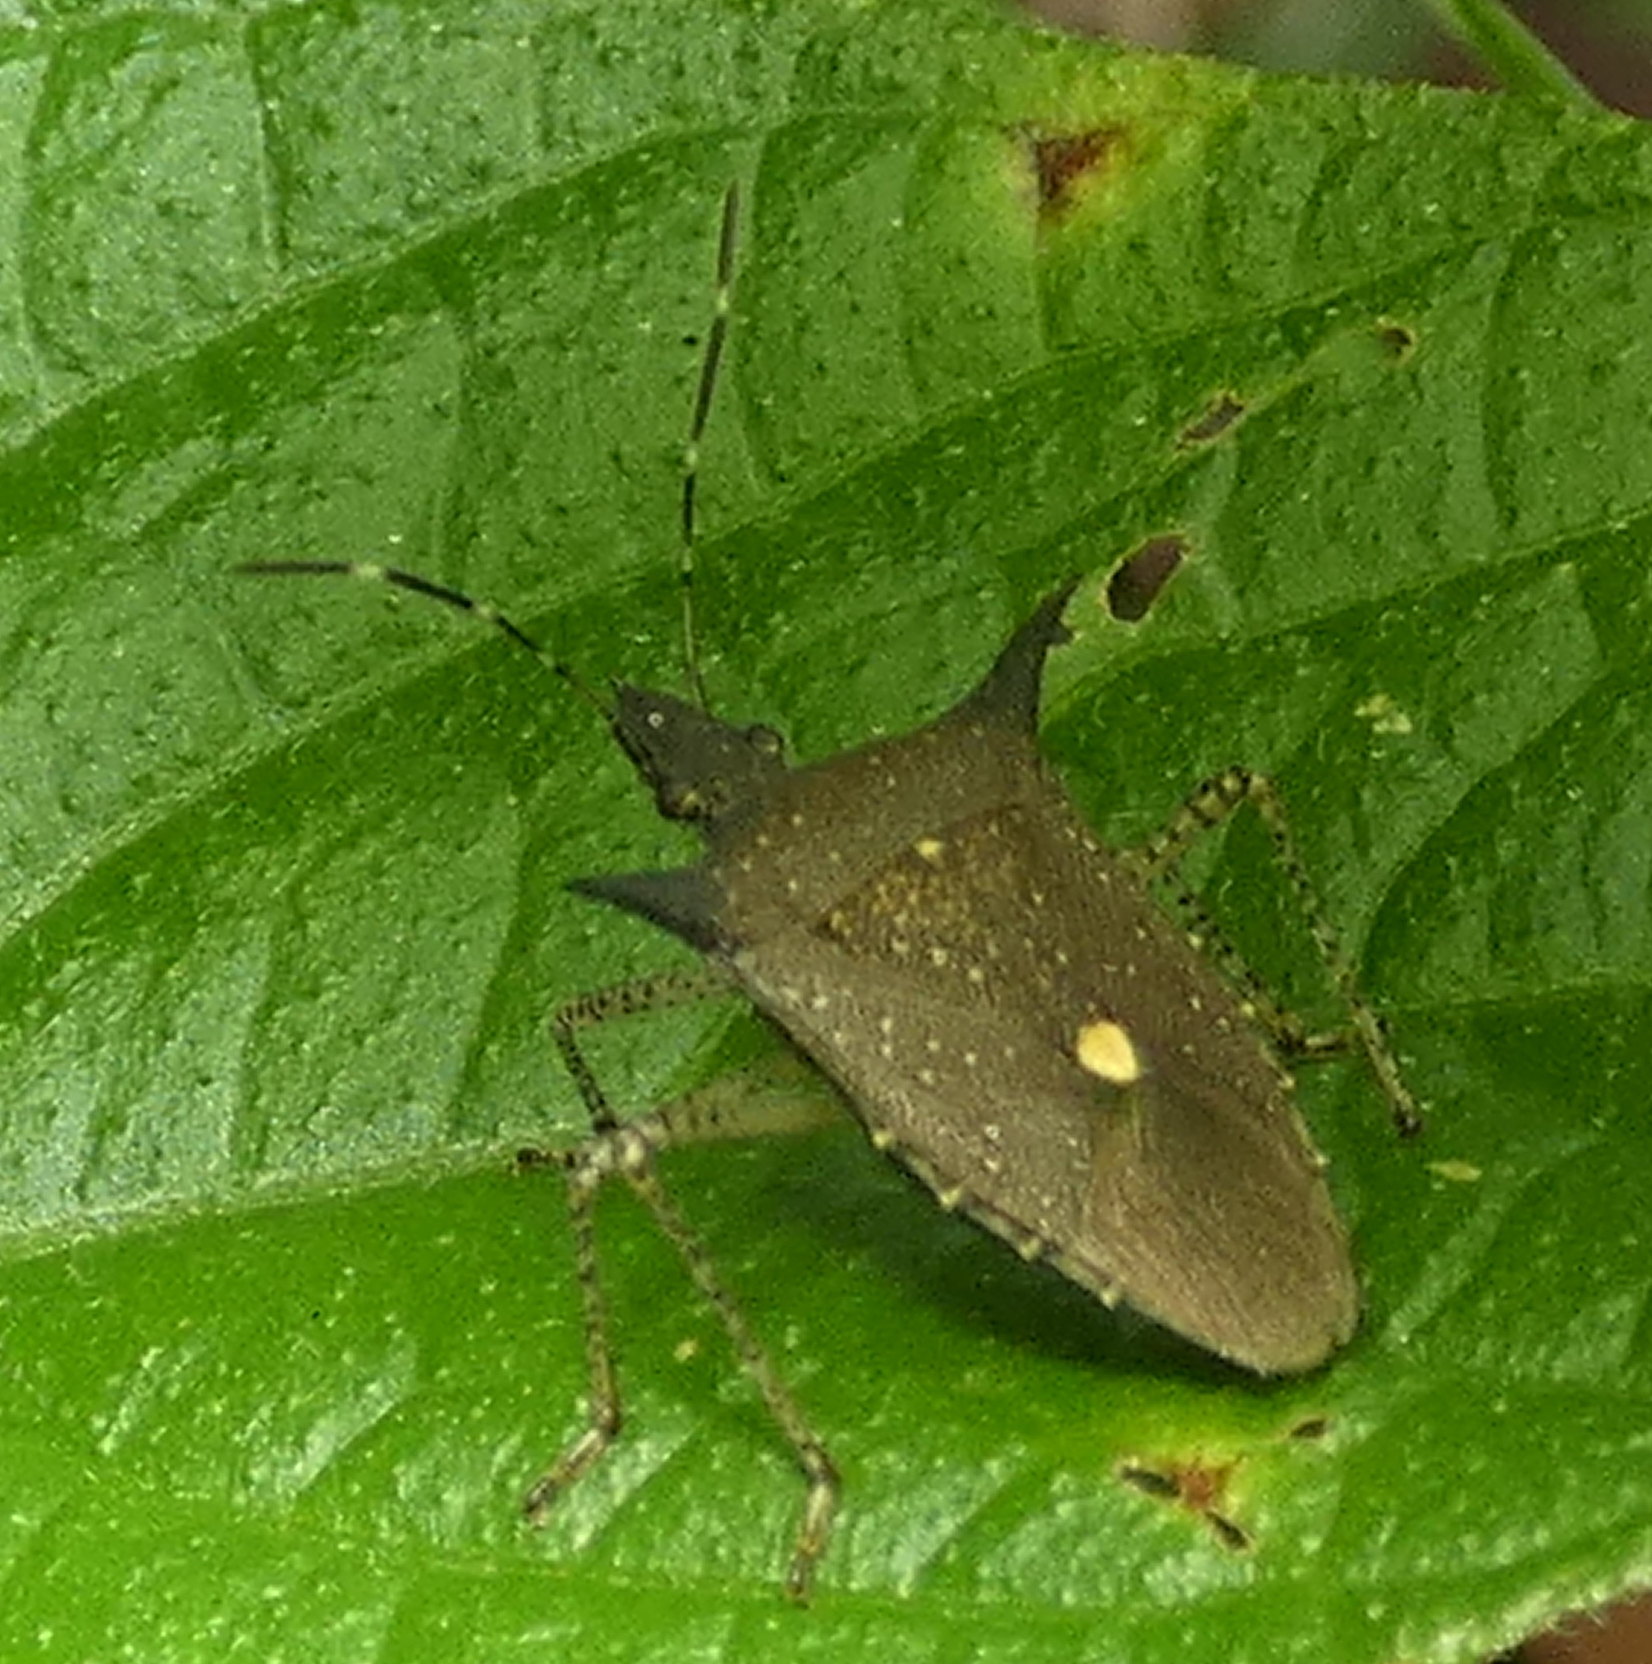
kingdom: Animalia
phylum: Arthropoda
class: Insecta
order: Hemiptera
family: Pentatomidae
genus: Proxys
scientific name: Proxys albopunctulatus
